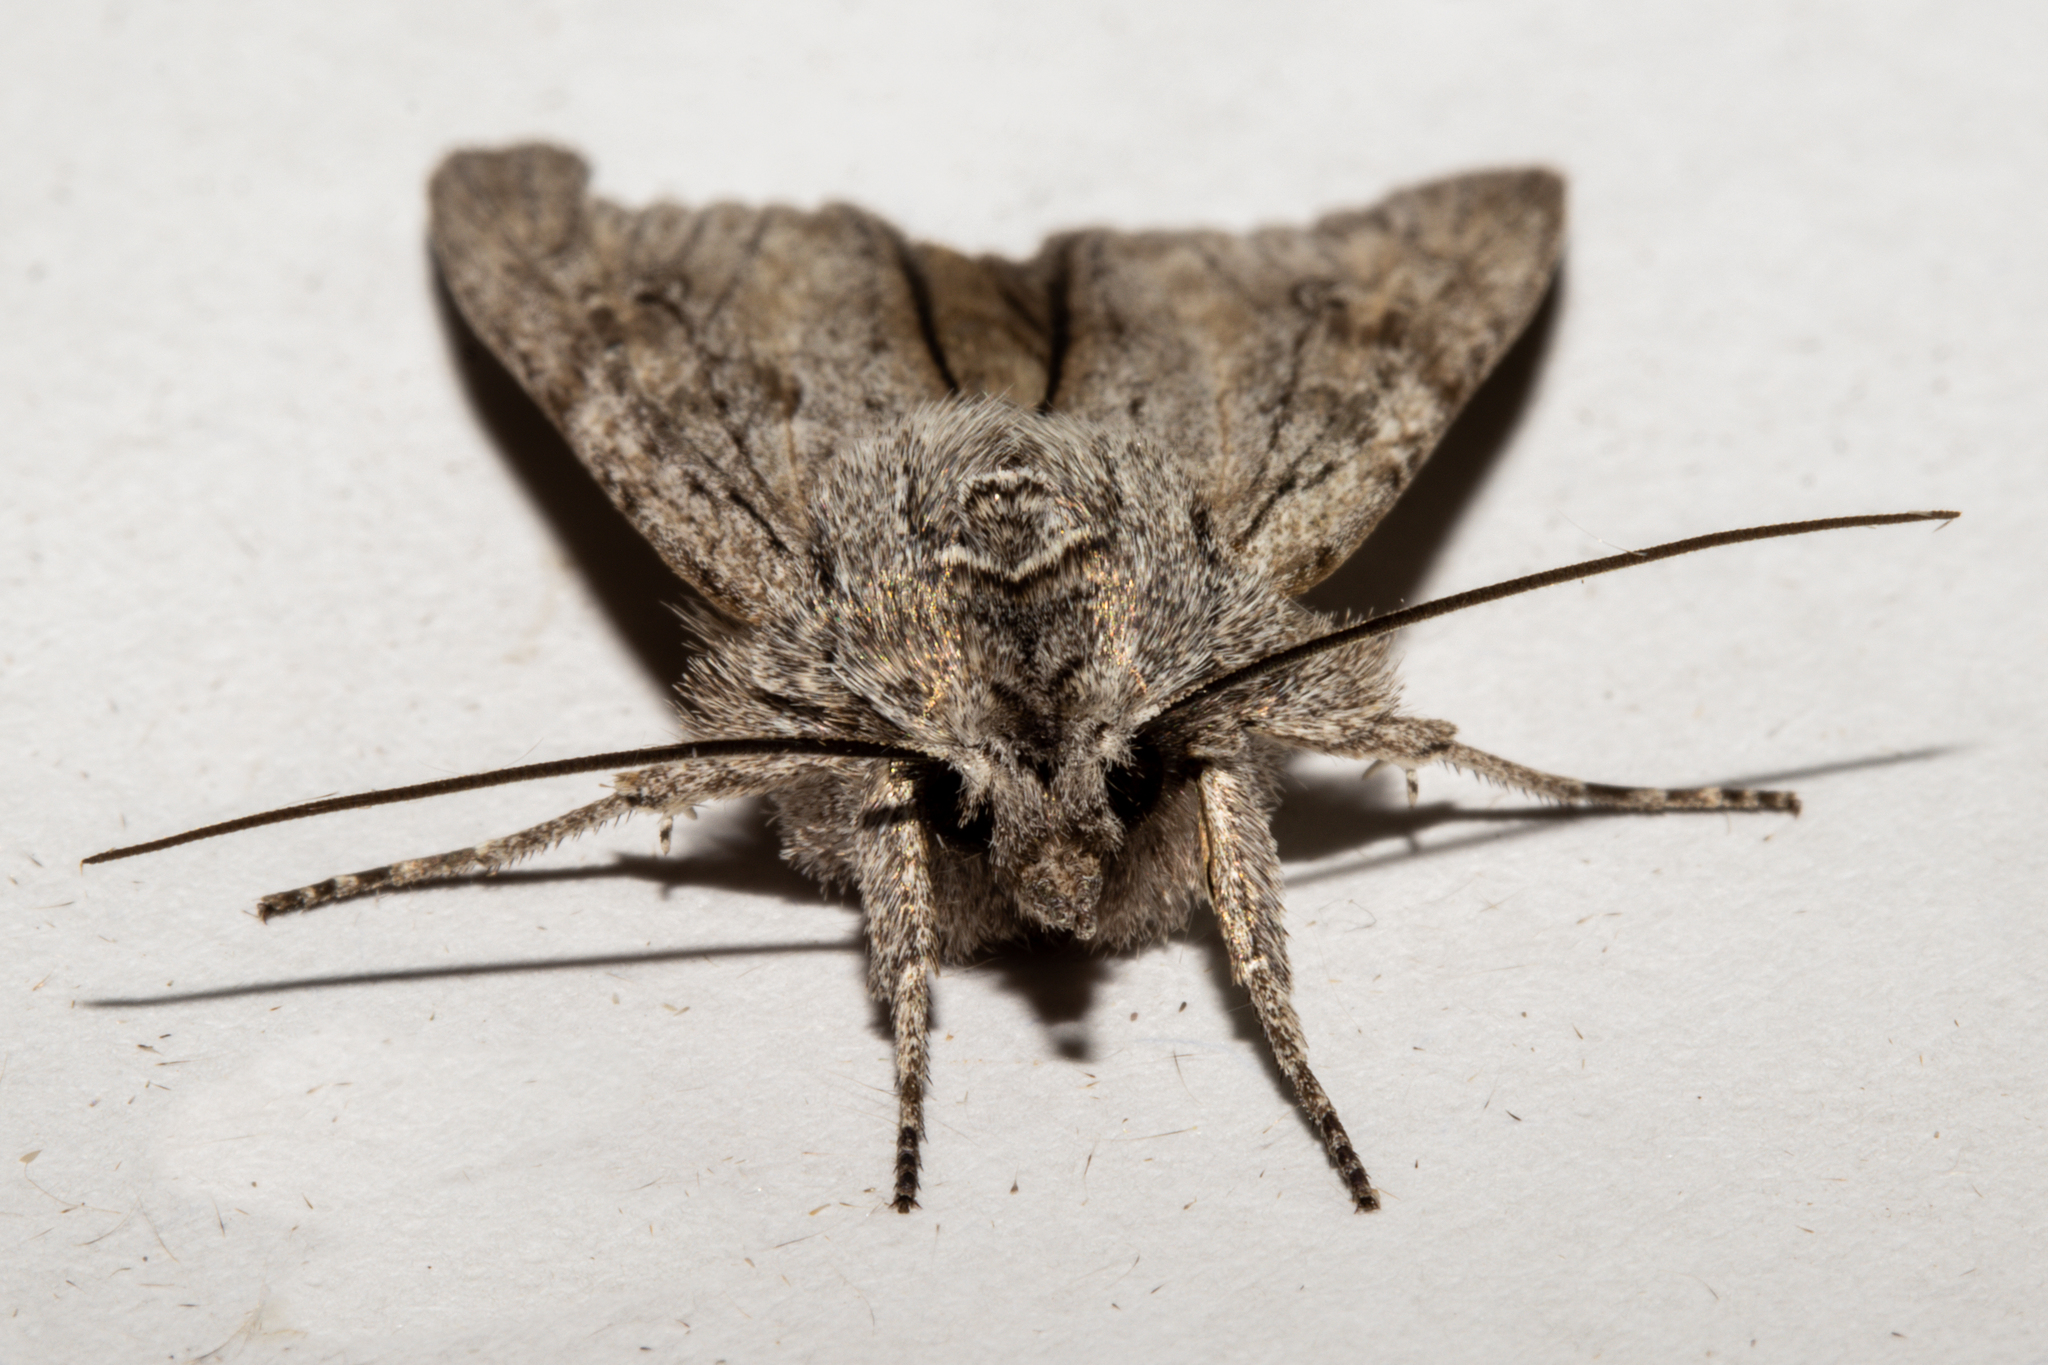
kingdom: Animalia
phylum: Arthropoda
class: Insecta
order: Lepidoptera
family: Noctuidae
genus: Physetica
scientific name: Physetica phricias
